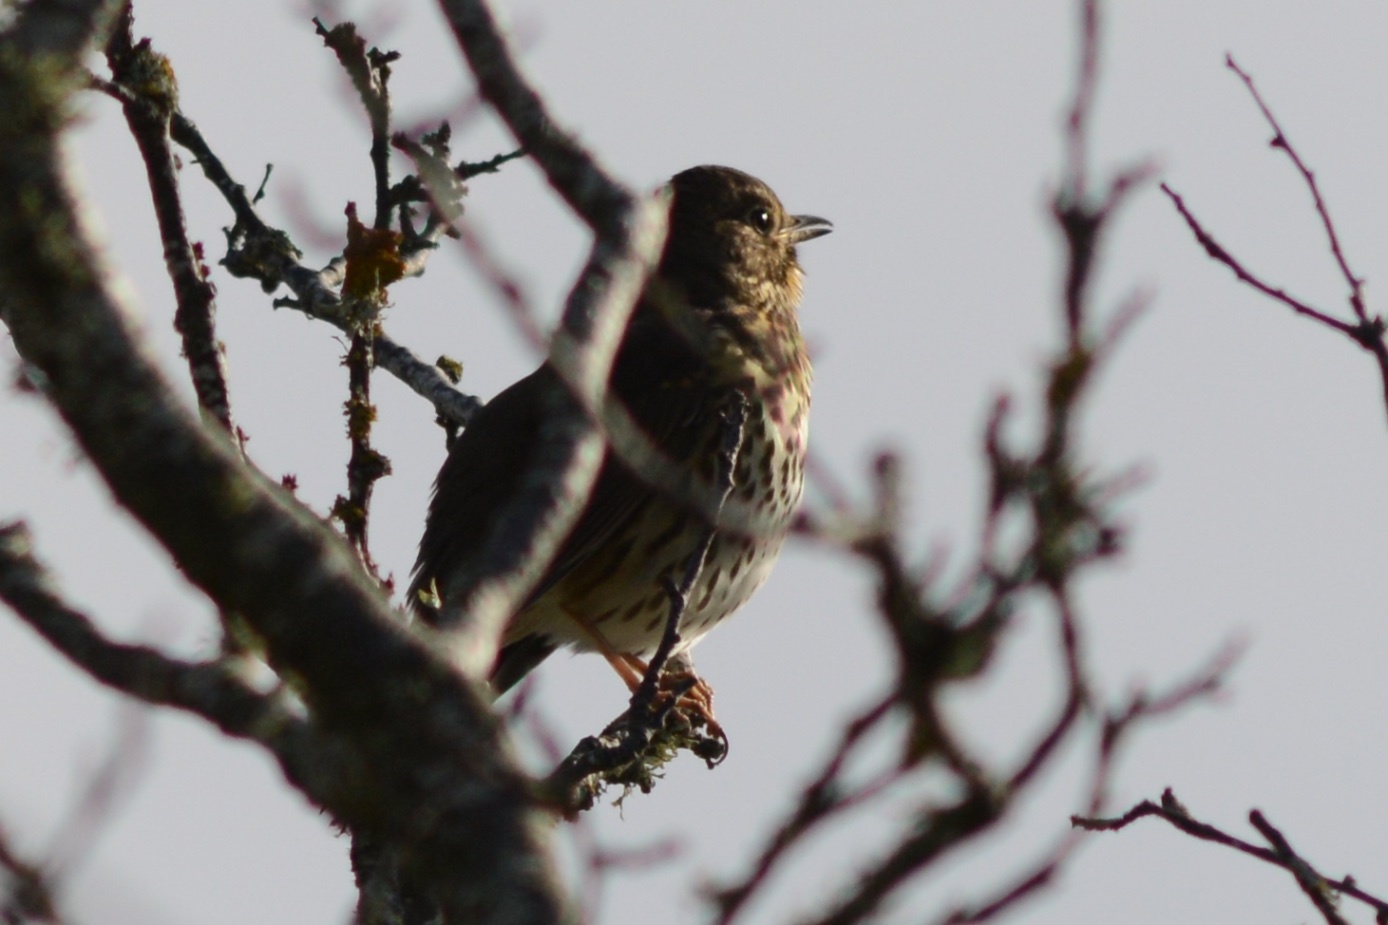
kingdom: Animalia
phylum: Chordata
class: Aves
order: Passeriformes
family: Turdidae
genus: Turdus
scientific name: Turdus philomelos
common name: Song thrush
